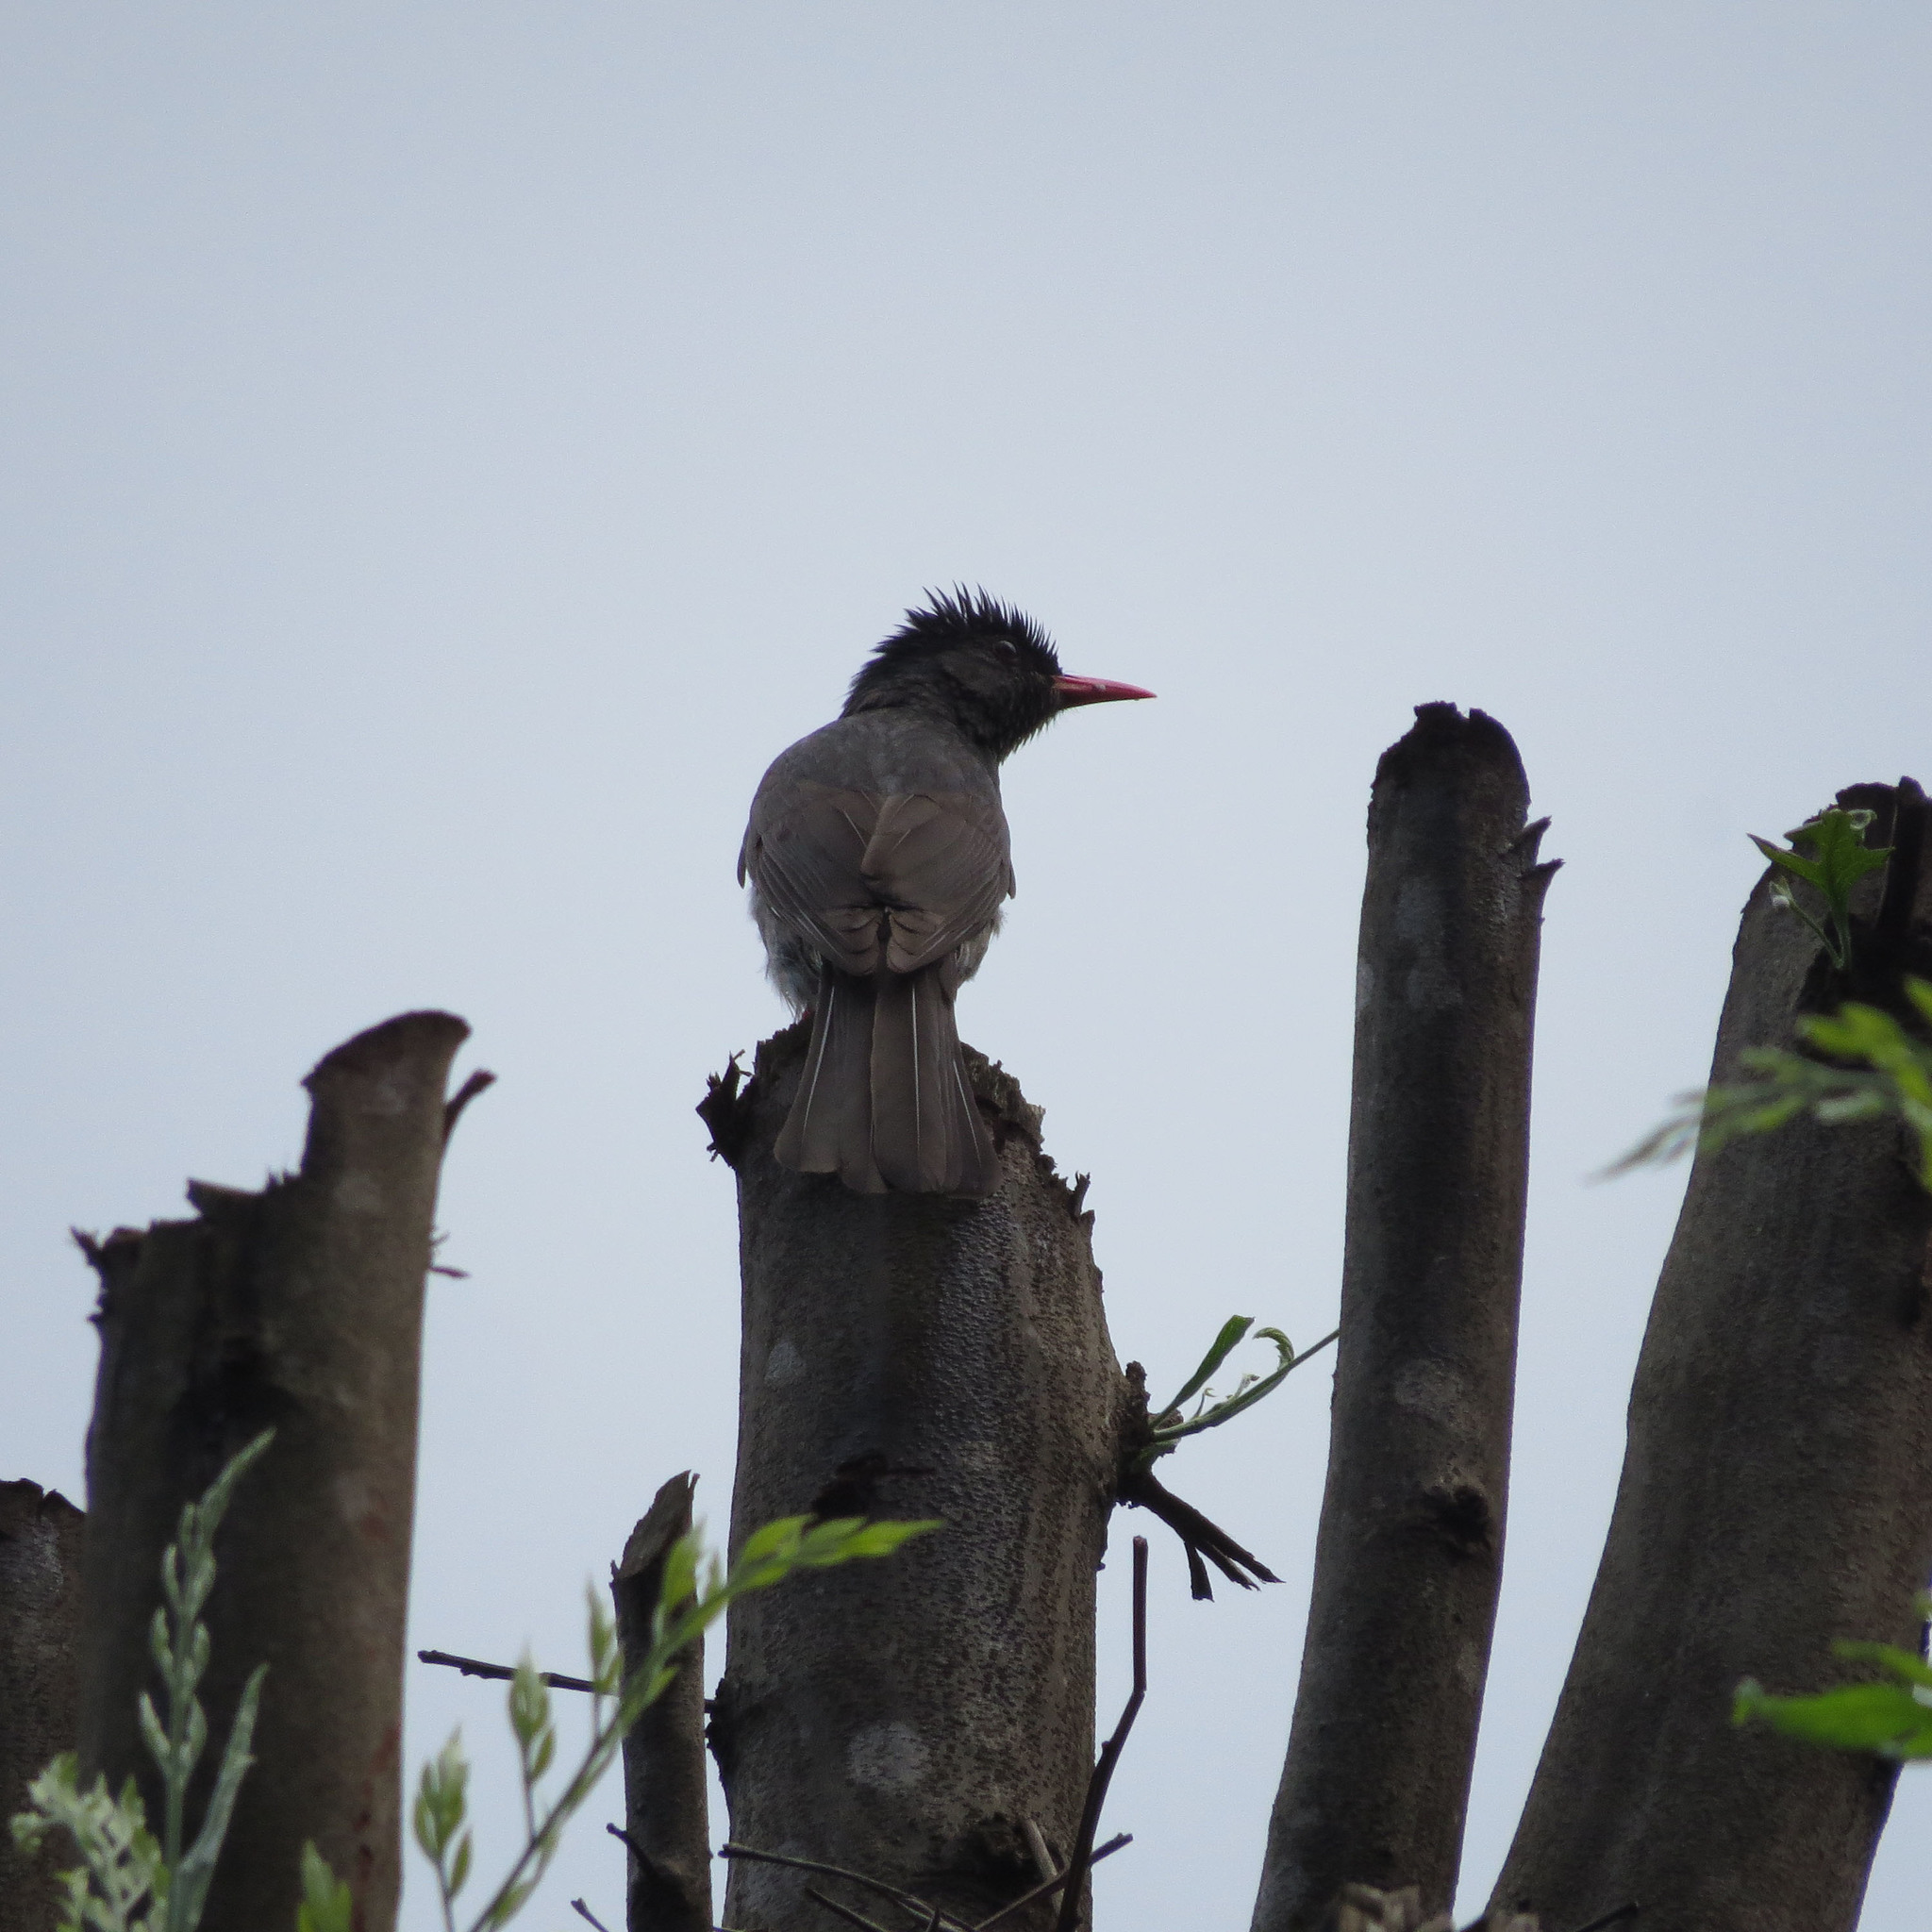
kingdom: Animalia
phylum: Chordata
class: Aves
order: Passeriformes
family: Pycnonotidae
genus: Hypsipetes
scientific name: Hypsipetes ganeesa
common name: Square-tailed bulbul
